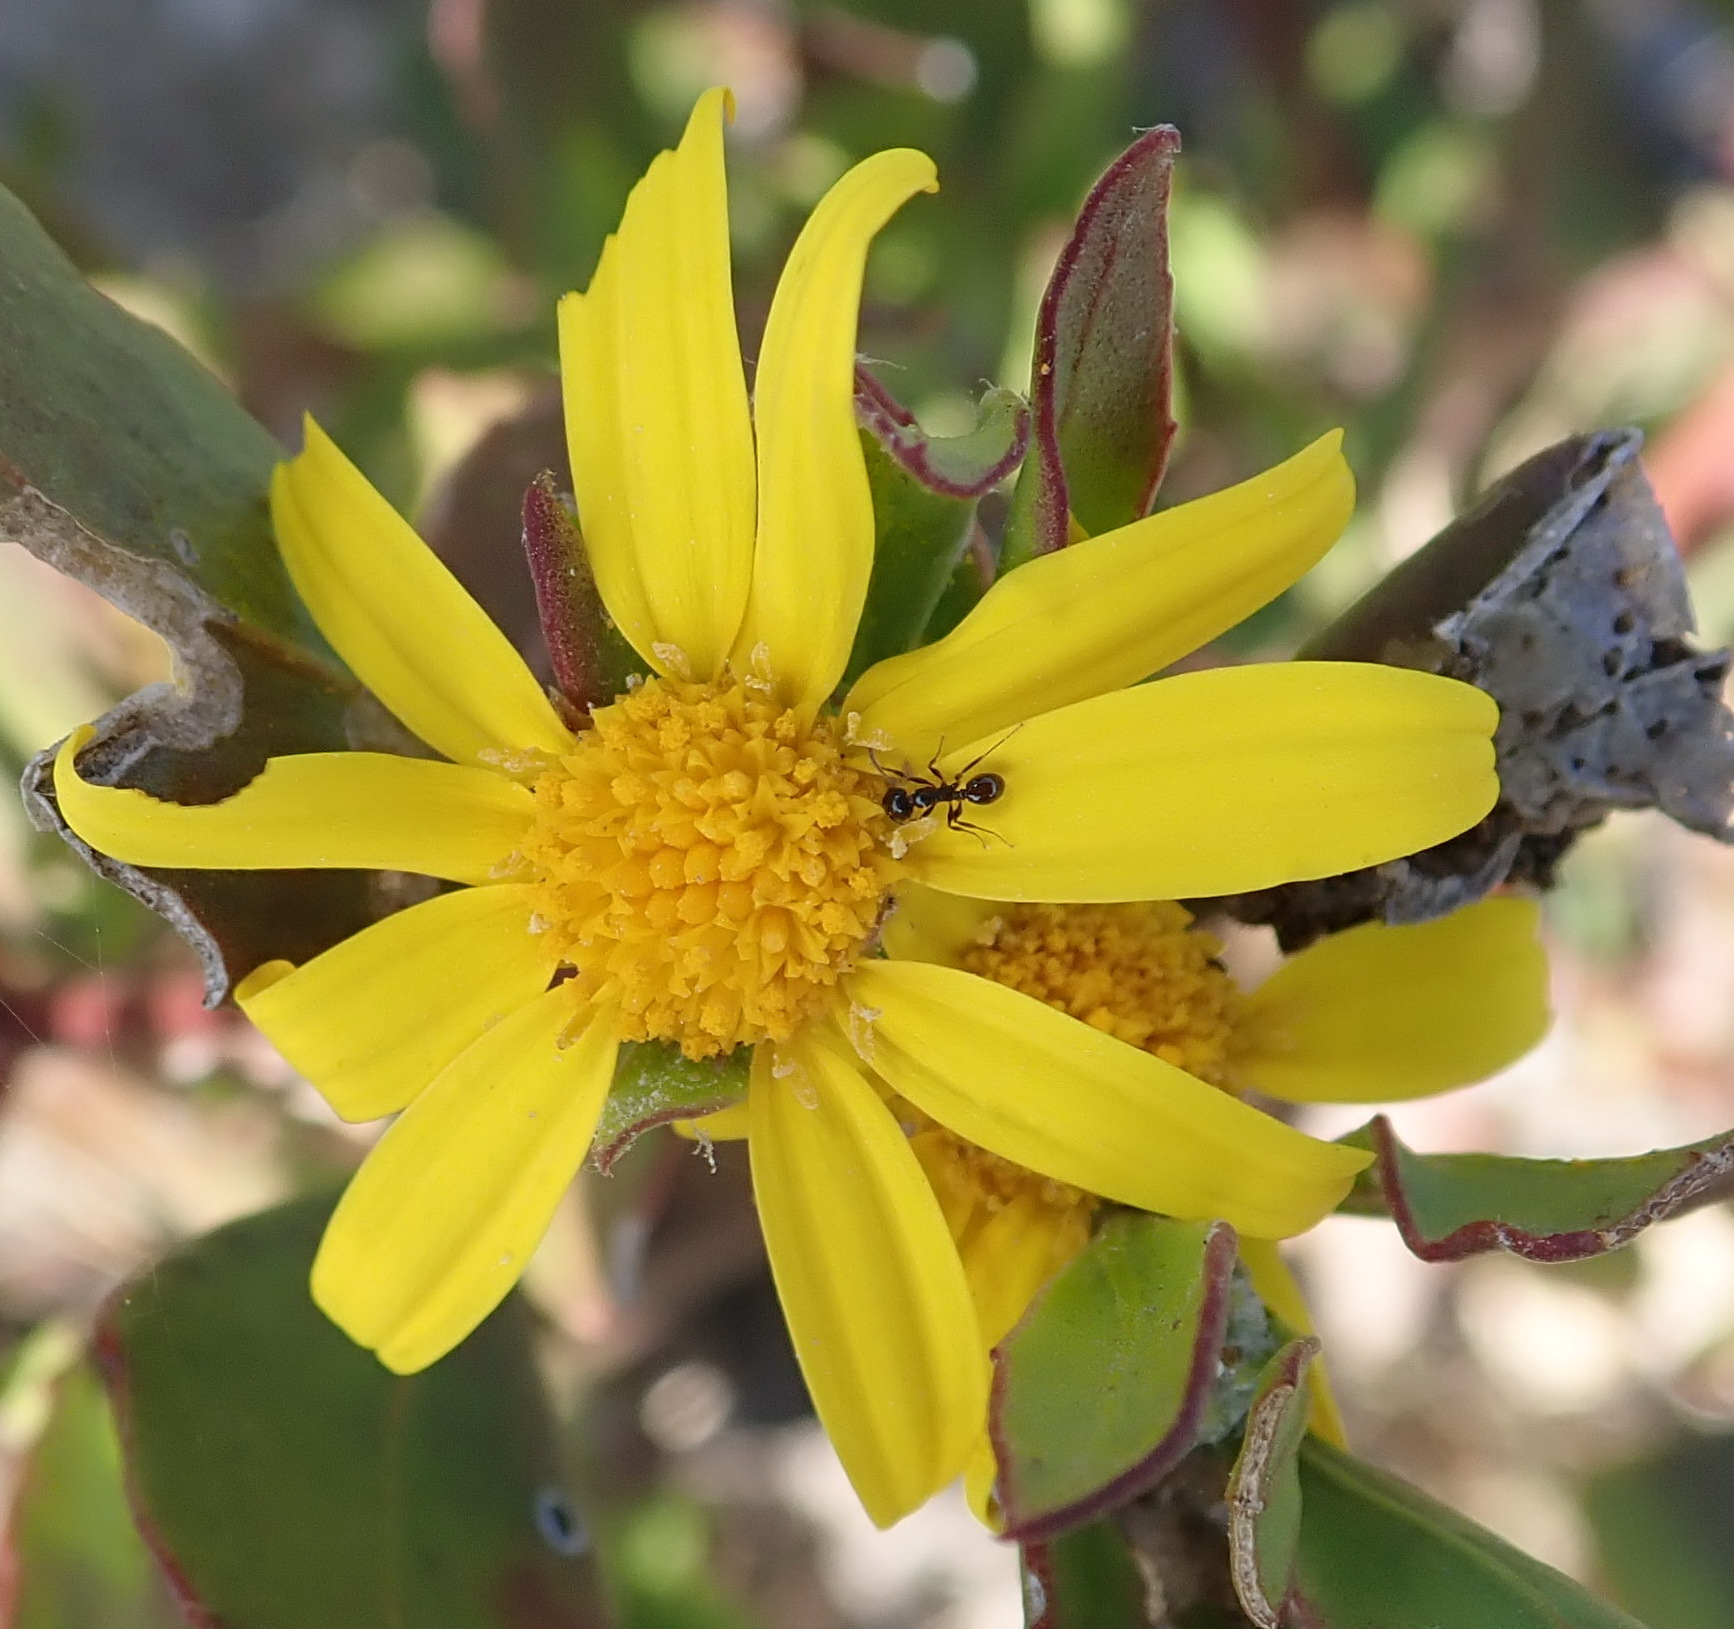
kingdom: Plantae
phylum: Tracheophyta
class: Magnoliopsida
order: Asterales
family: Asteraceae
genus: Osteospermum
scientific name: Osteospermum moniliferum
